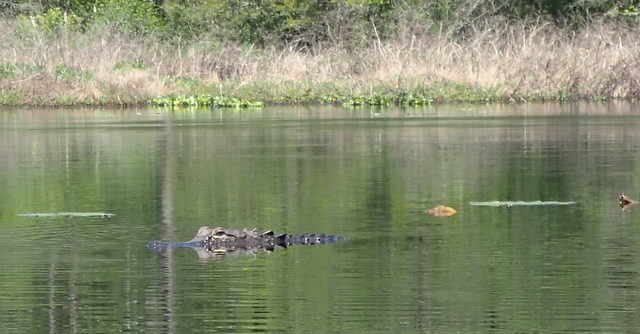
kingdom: Animalia
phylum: Chordata
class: Crocodylia
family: Alligatoridae
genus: Alligator
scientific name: Alligator mississippiensis
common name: American alligator
